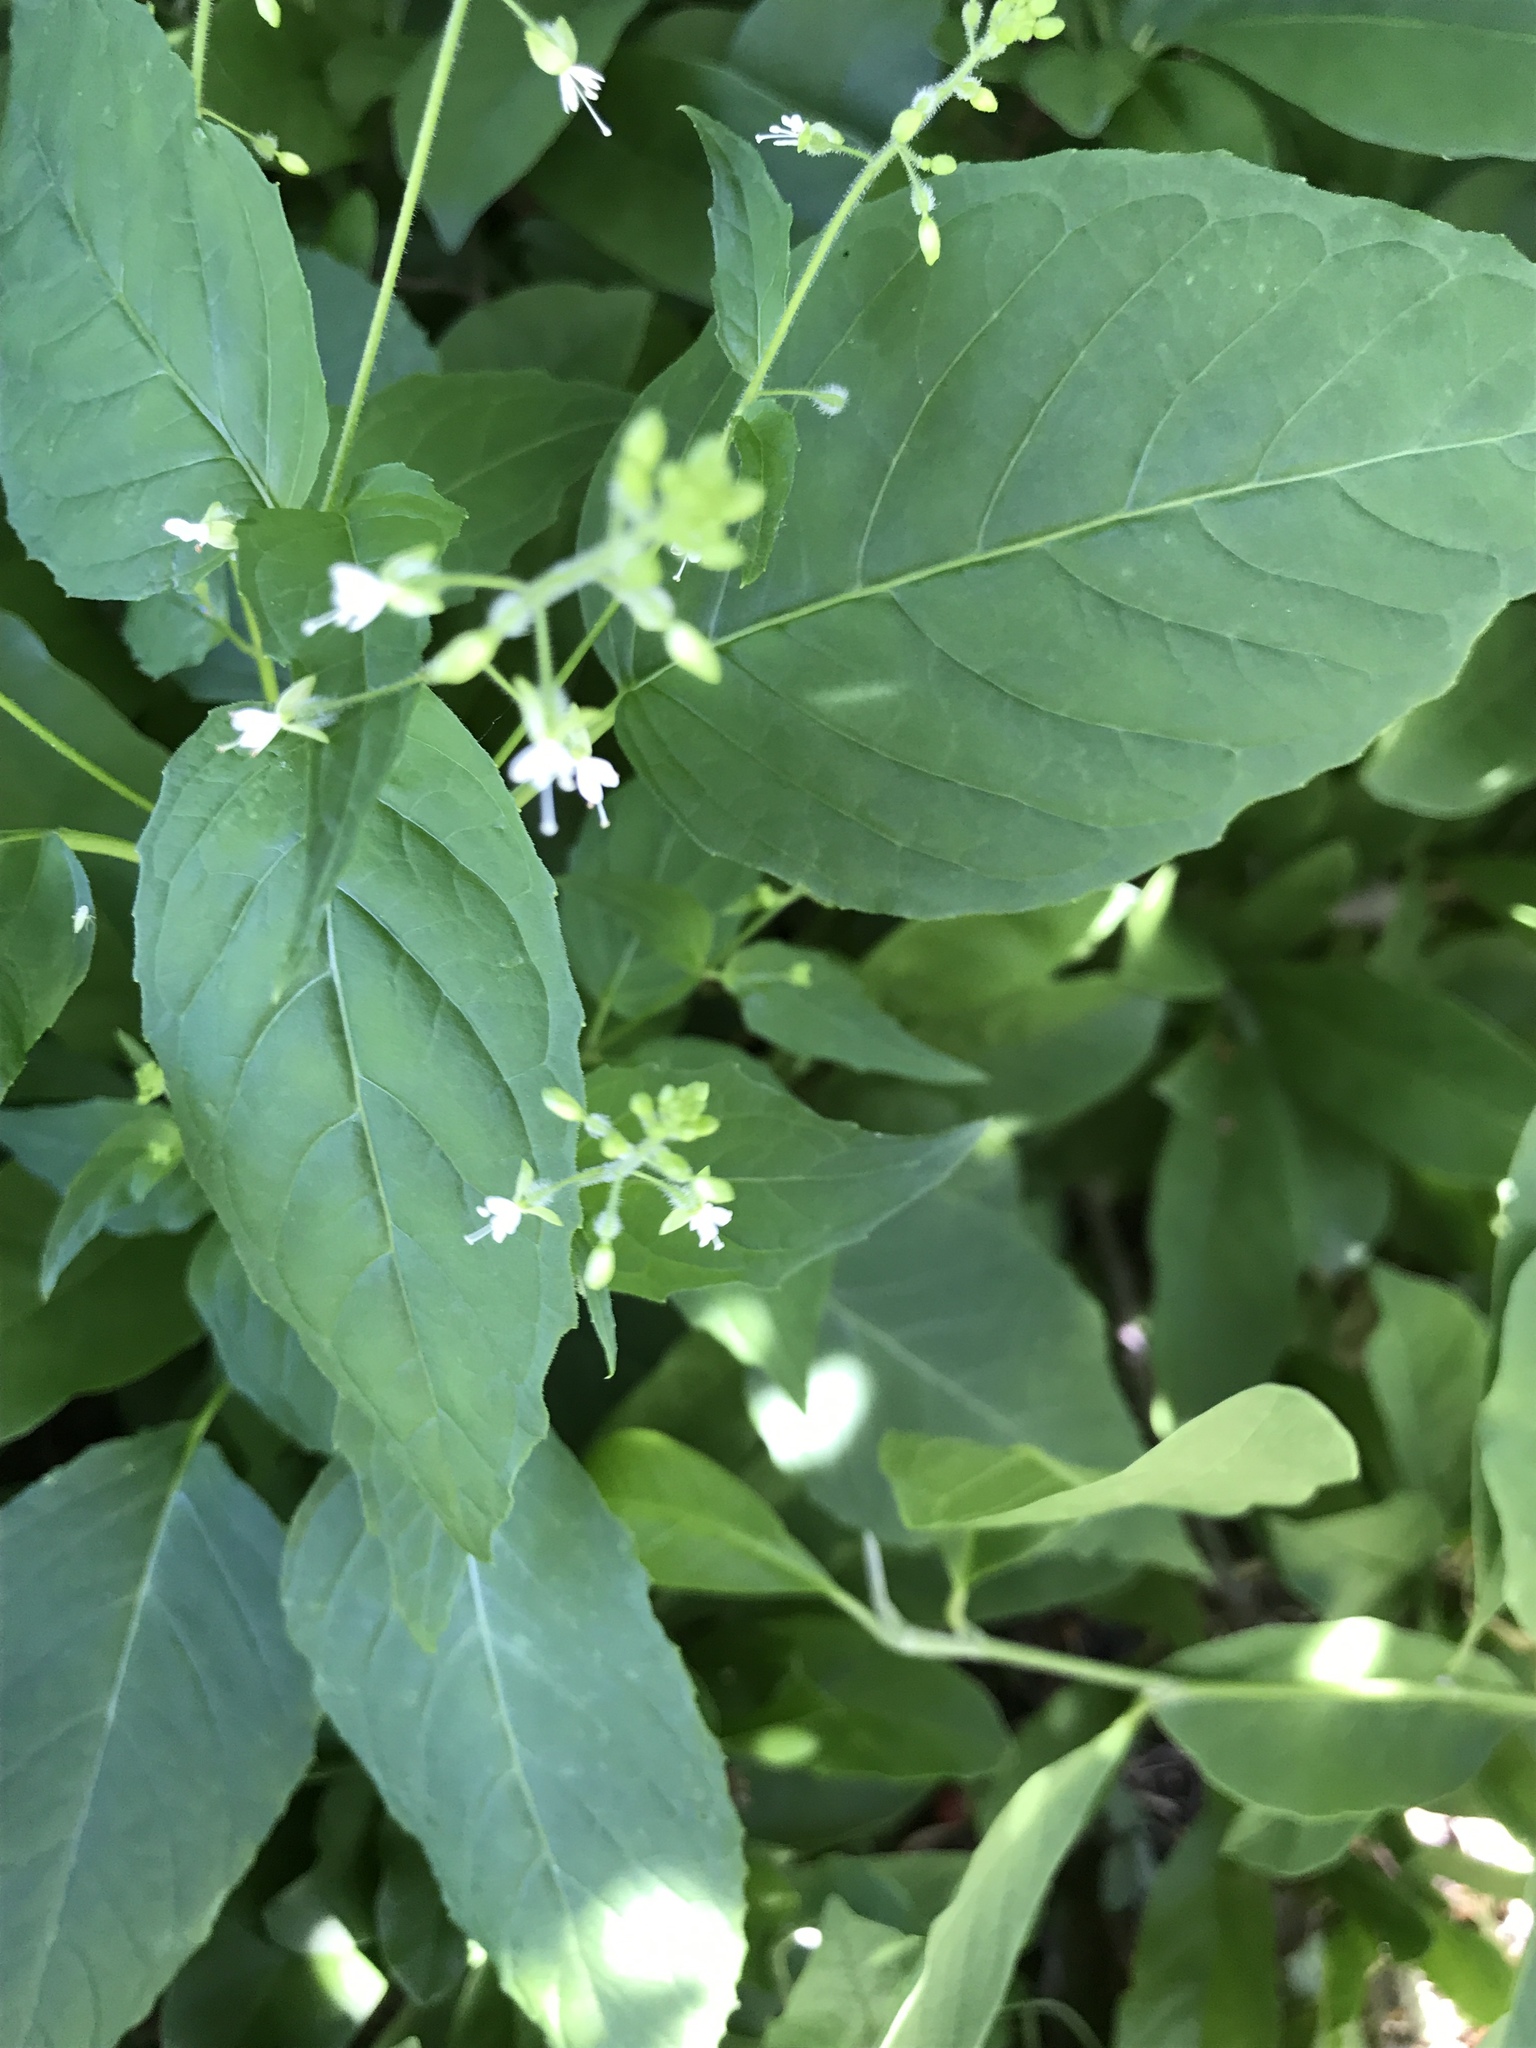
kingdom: Plantae
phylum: Tracheophyta
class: Magnoliopsida
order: Myrtales
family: Onagraceae
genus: Circaea
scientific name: Circaea canadensis
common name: Broad-leaved enchanter's nightshade
